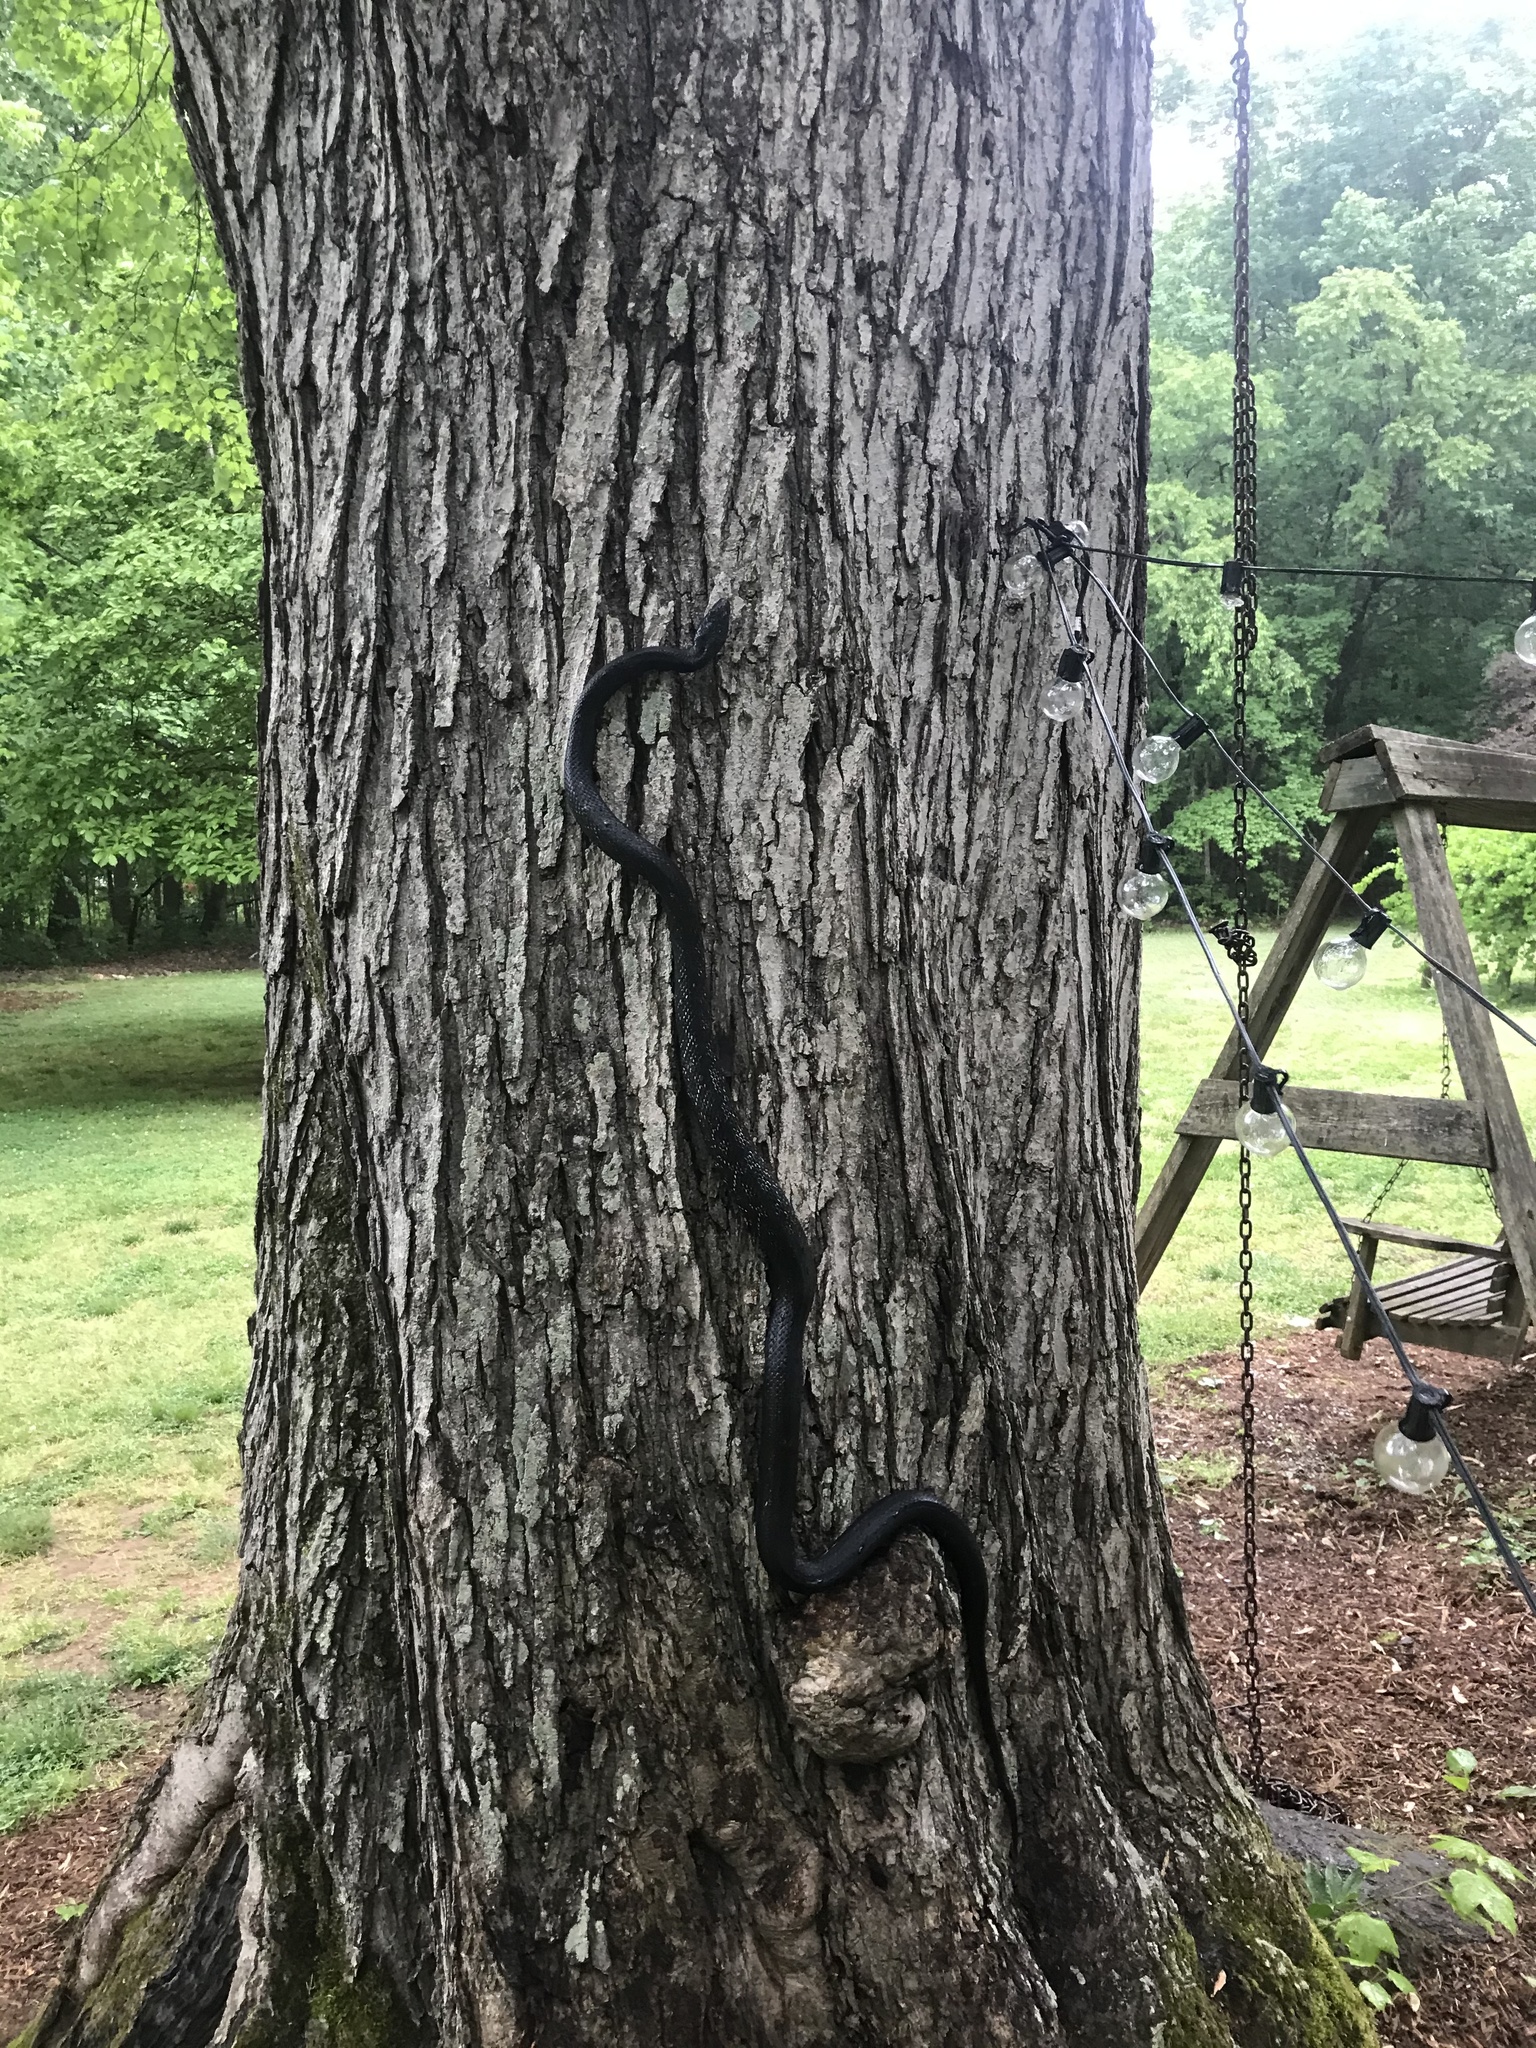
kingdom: Animalia
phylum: Chordata
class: Squamata
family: Colubridae
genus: Pantherophis
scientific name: Pantherophis alleghaniensis
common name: Eastern rat snake
